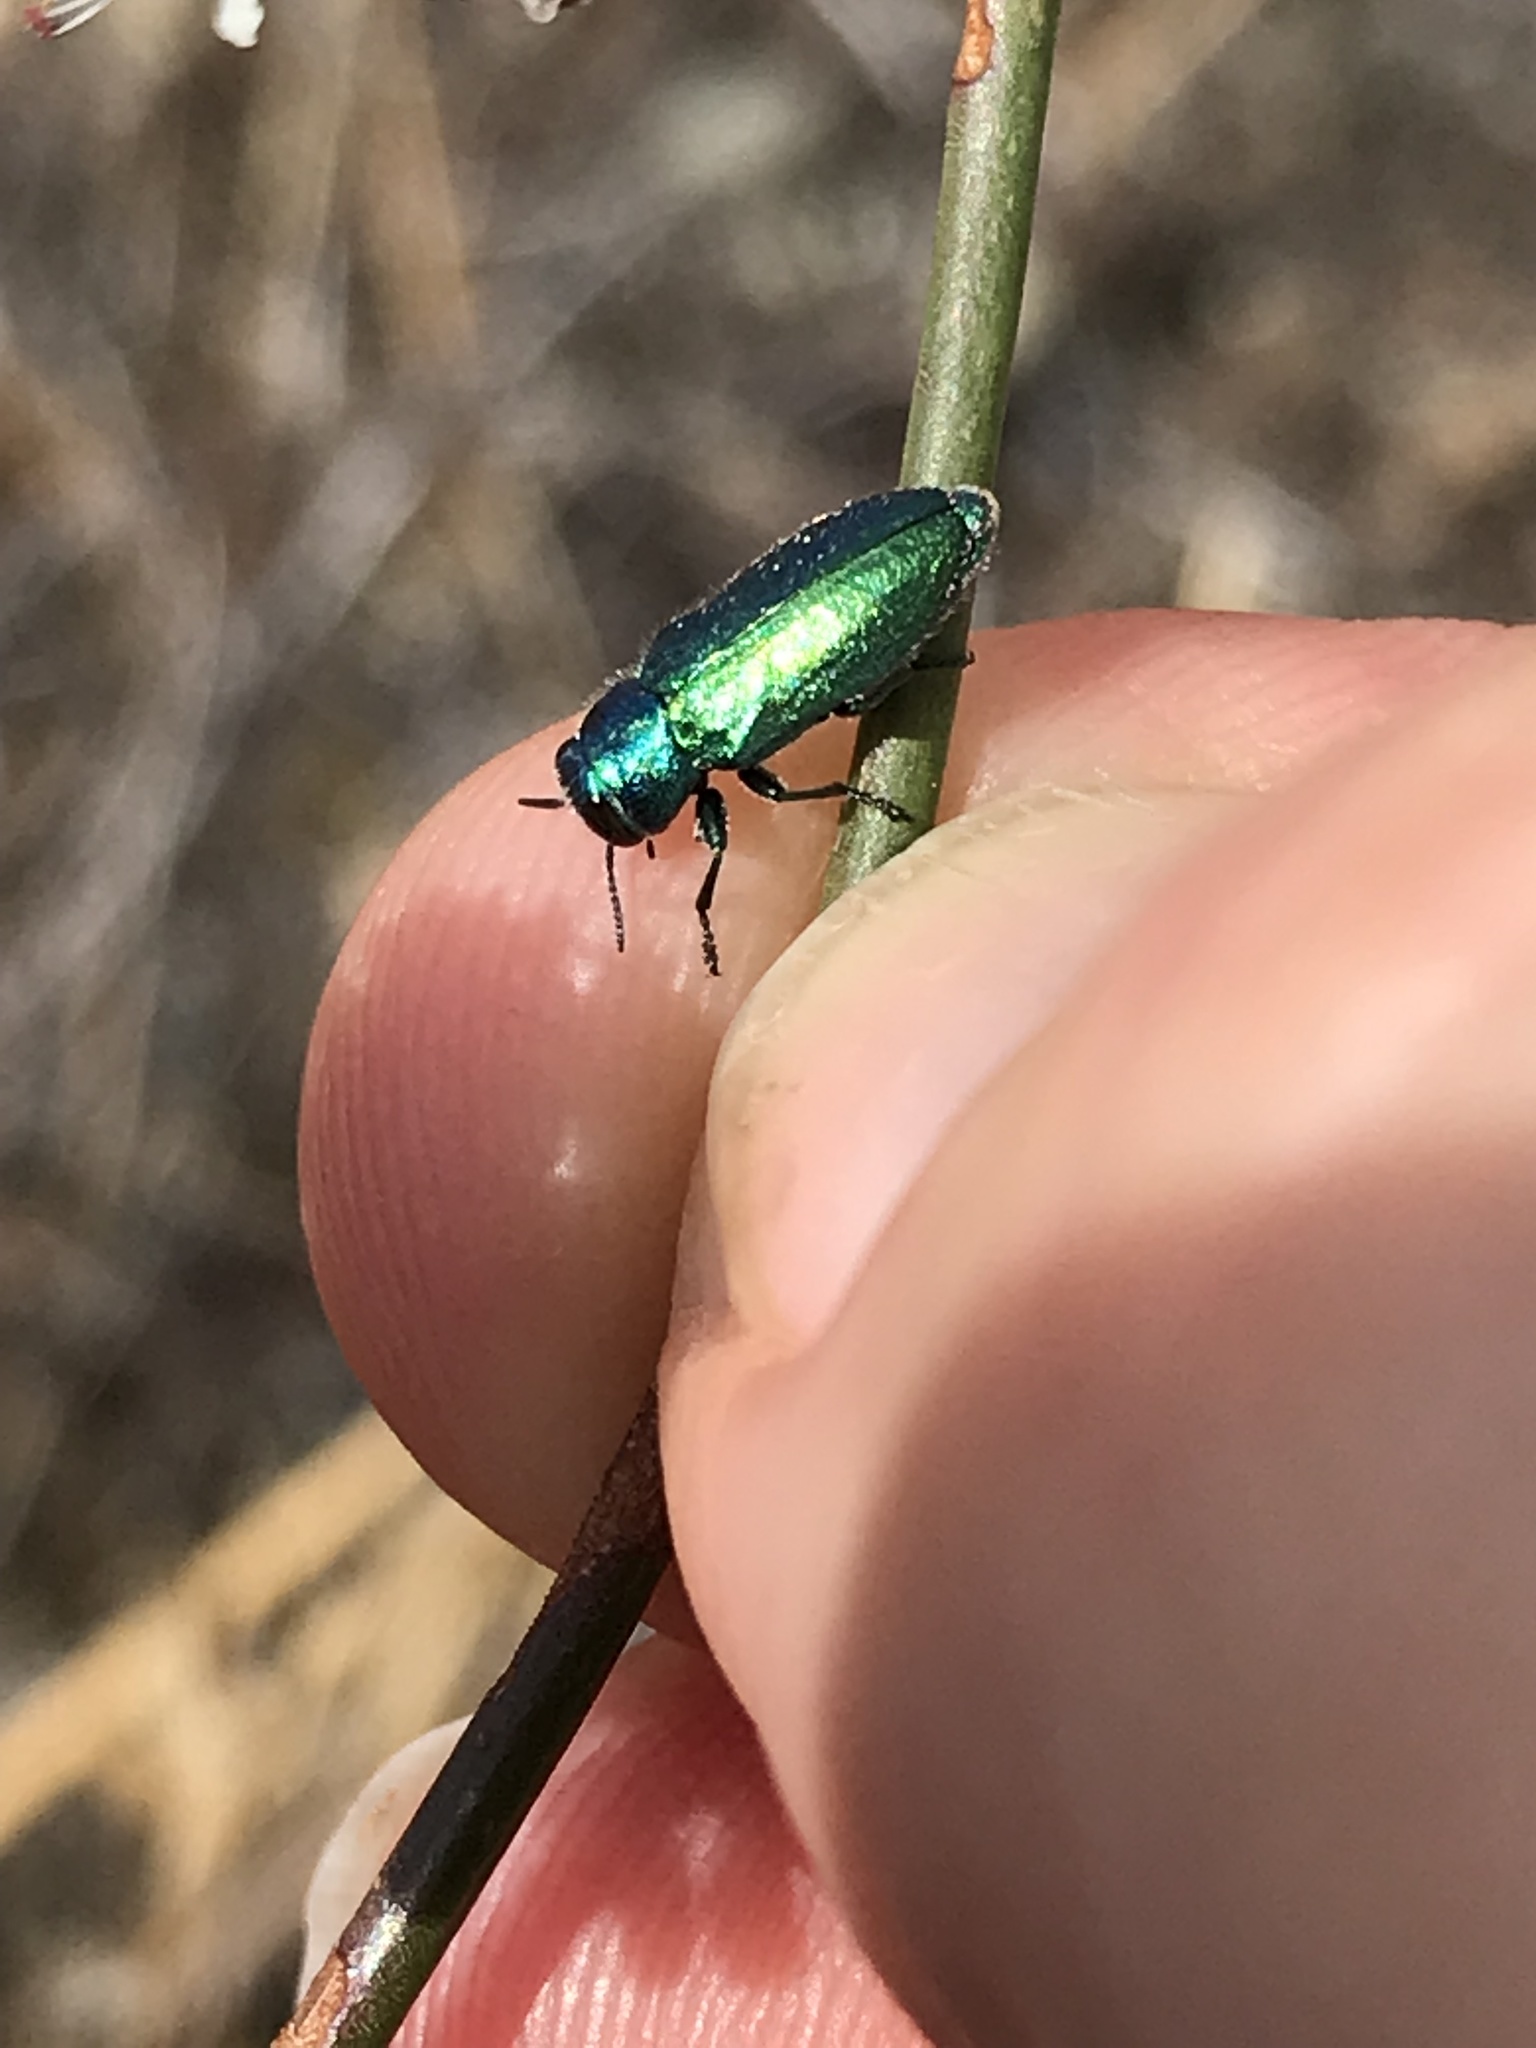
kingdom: Animalia
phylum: Arthropoda
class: Insecta
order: Coleoptera
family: Buprestidae
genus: Chrysobothris
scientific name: Chrysobothris cyanella
